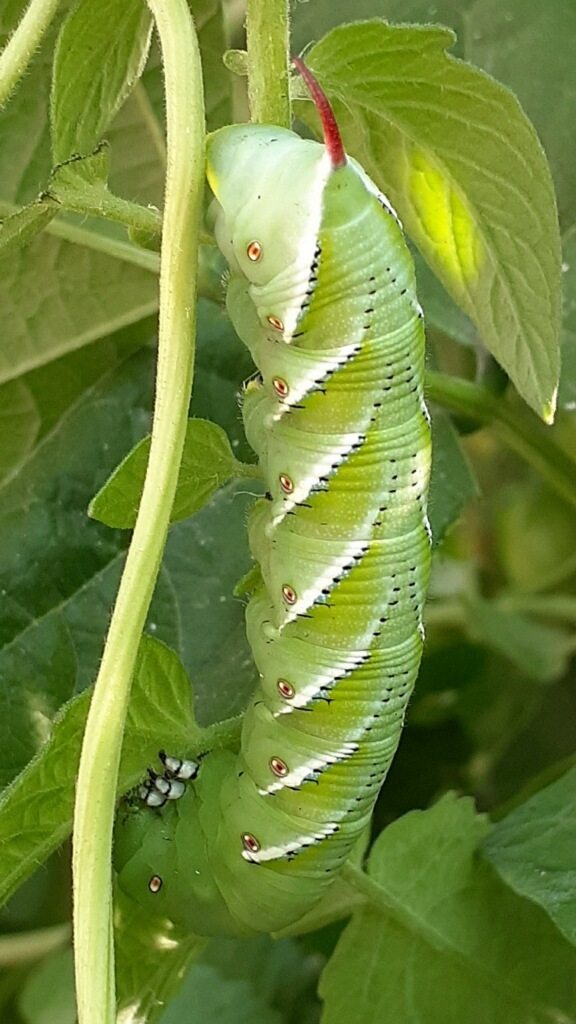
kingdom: Animalia
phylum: Arthropoda
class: Insecta
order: Lepidoptera
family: Sphingidae
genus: Manduca
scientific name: Manduca sexta
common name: Carolina sphinx
